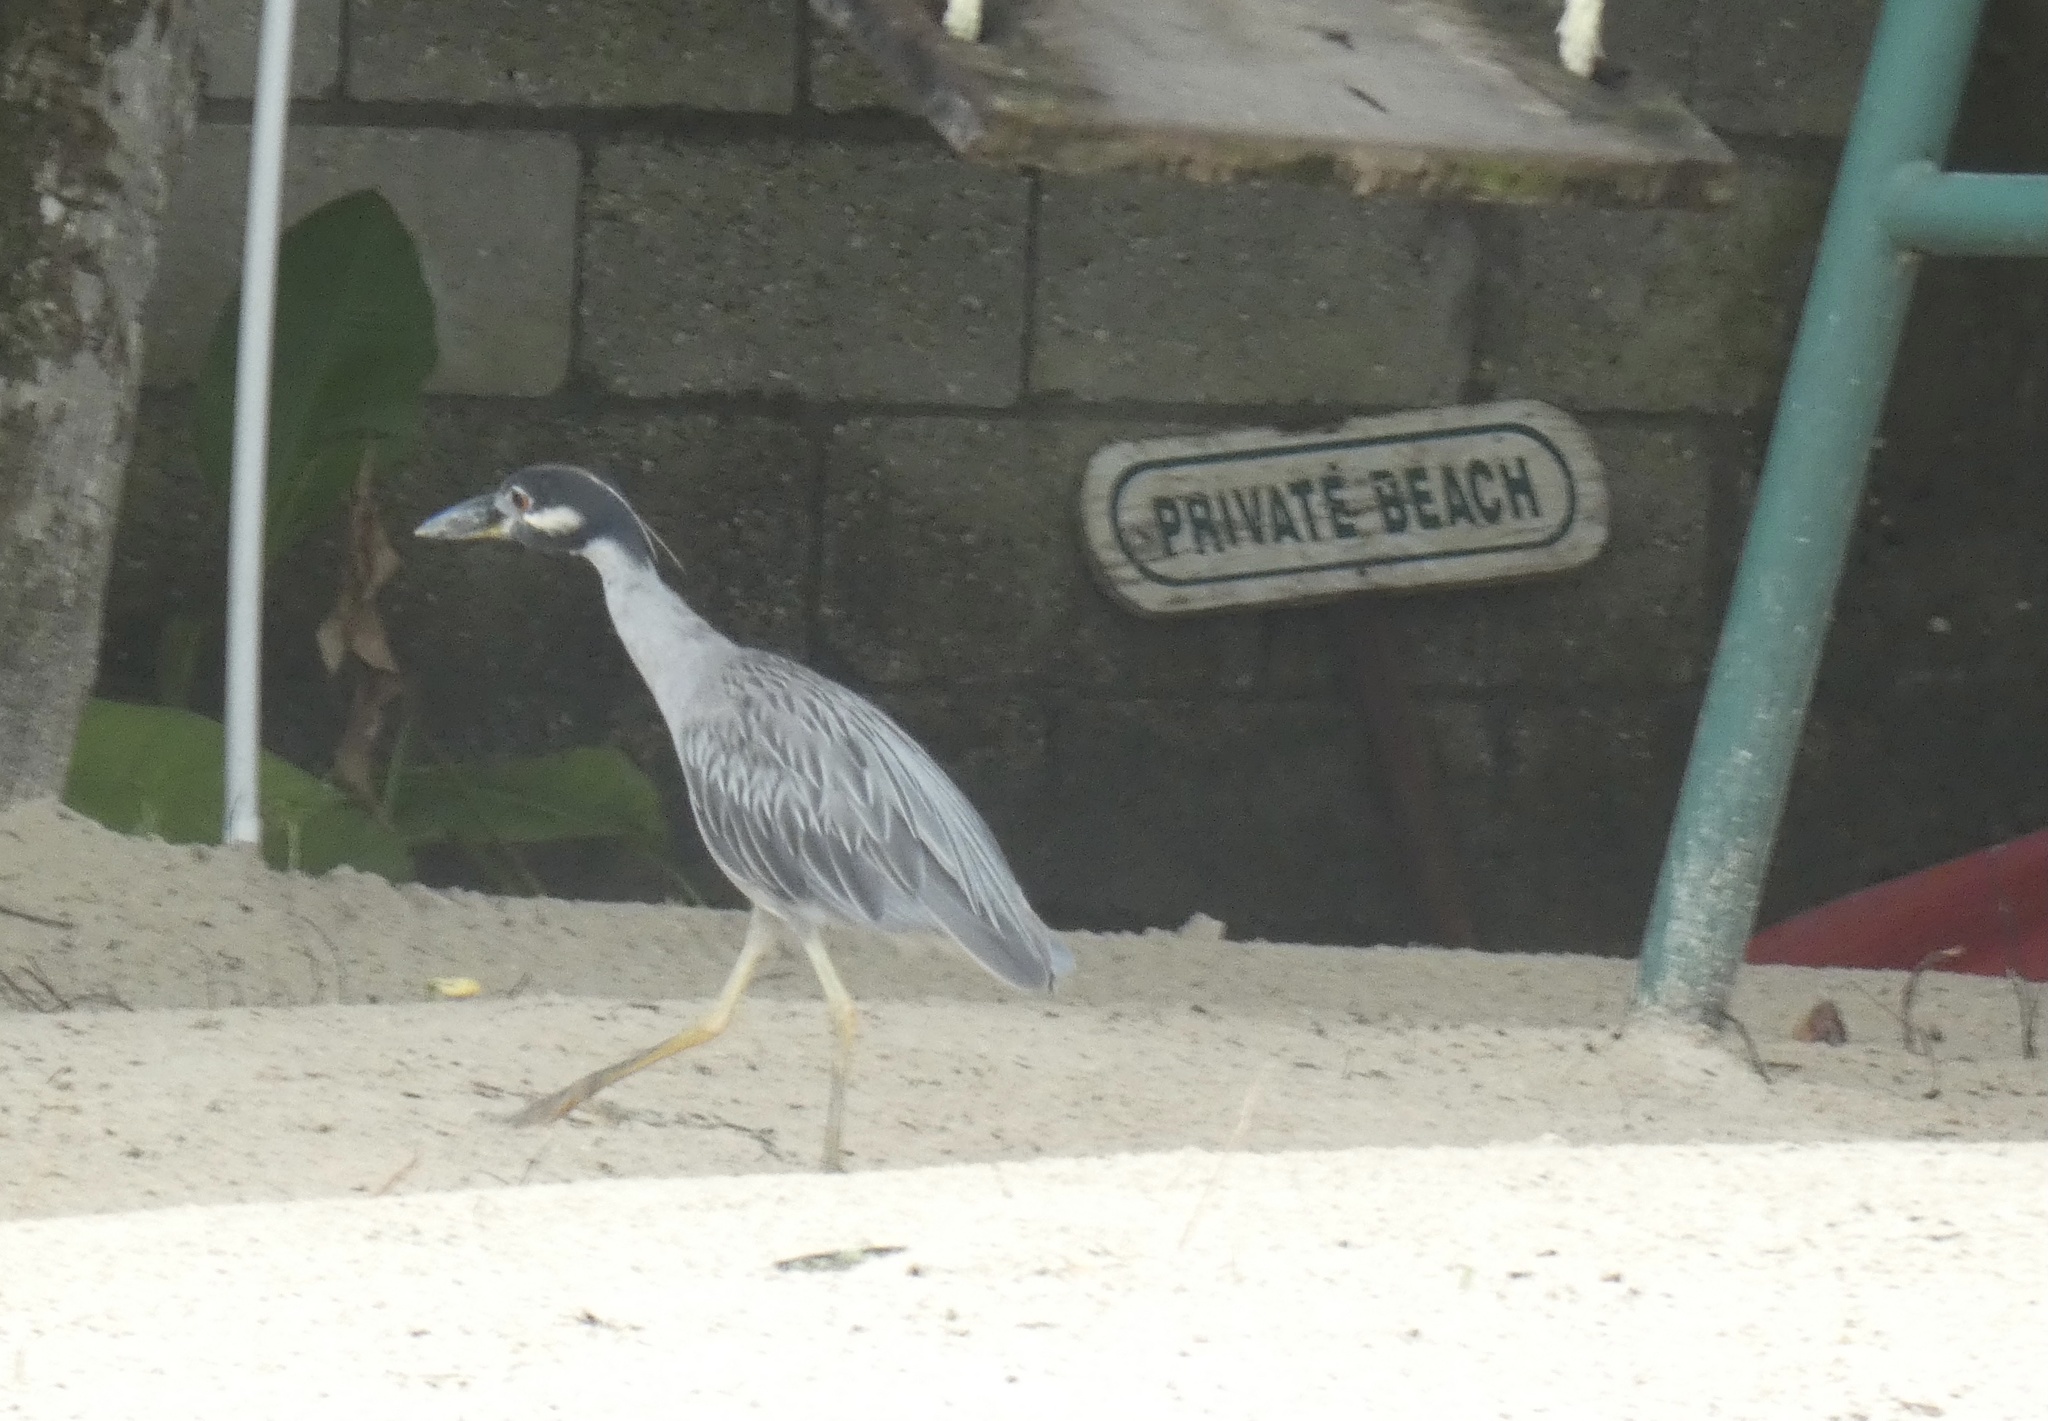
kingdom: Animalia
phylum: Chordata
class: Aves
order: Pelecaniformes
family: Ardeidae
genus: Nyctanassa
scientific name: Nyctanassa violacea
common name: Yellow-crowned night heron
